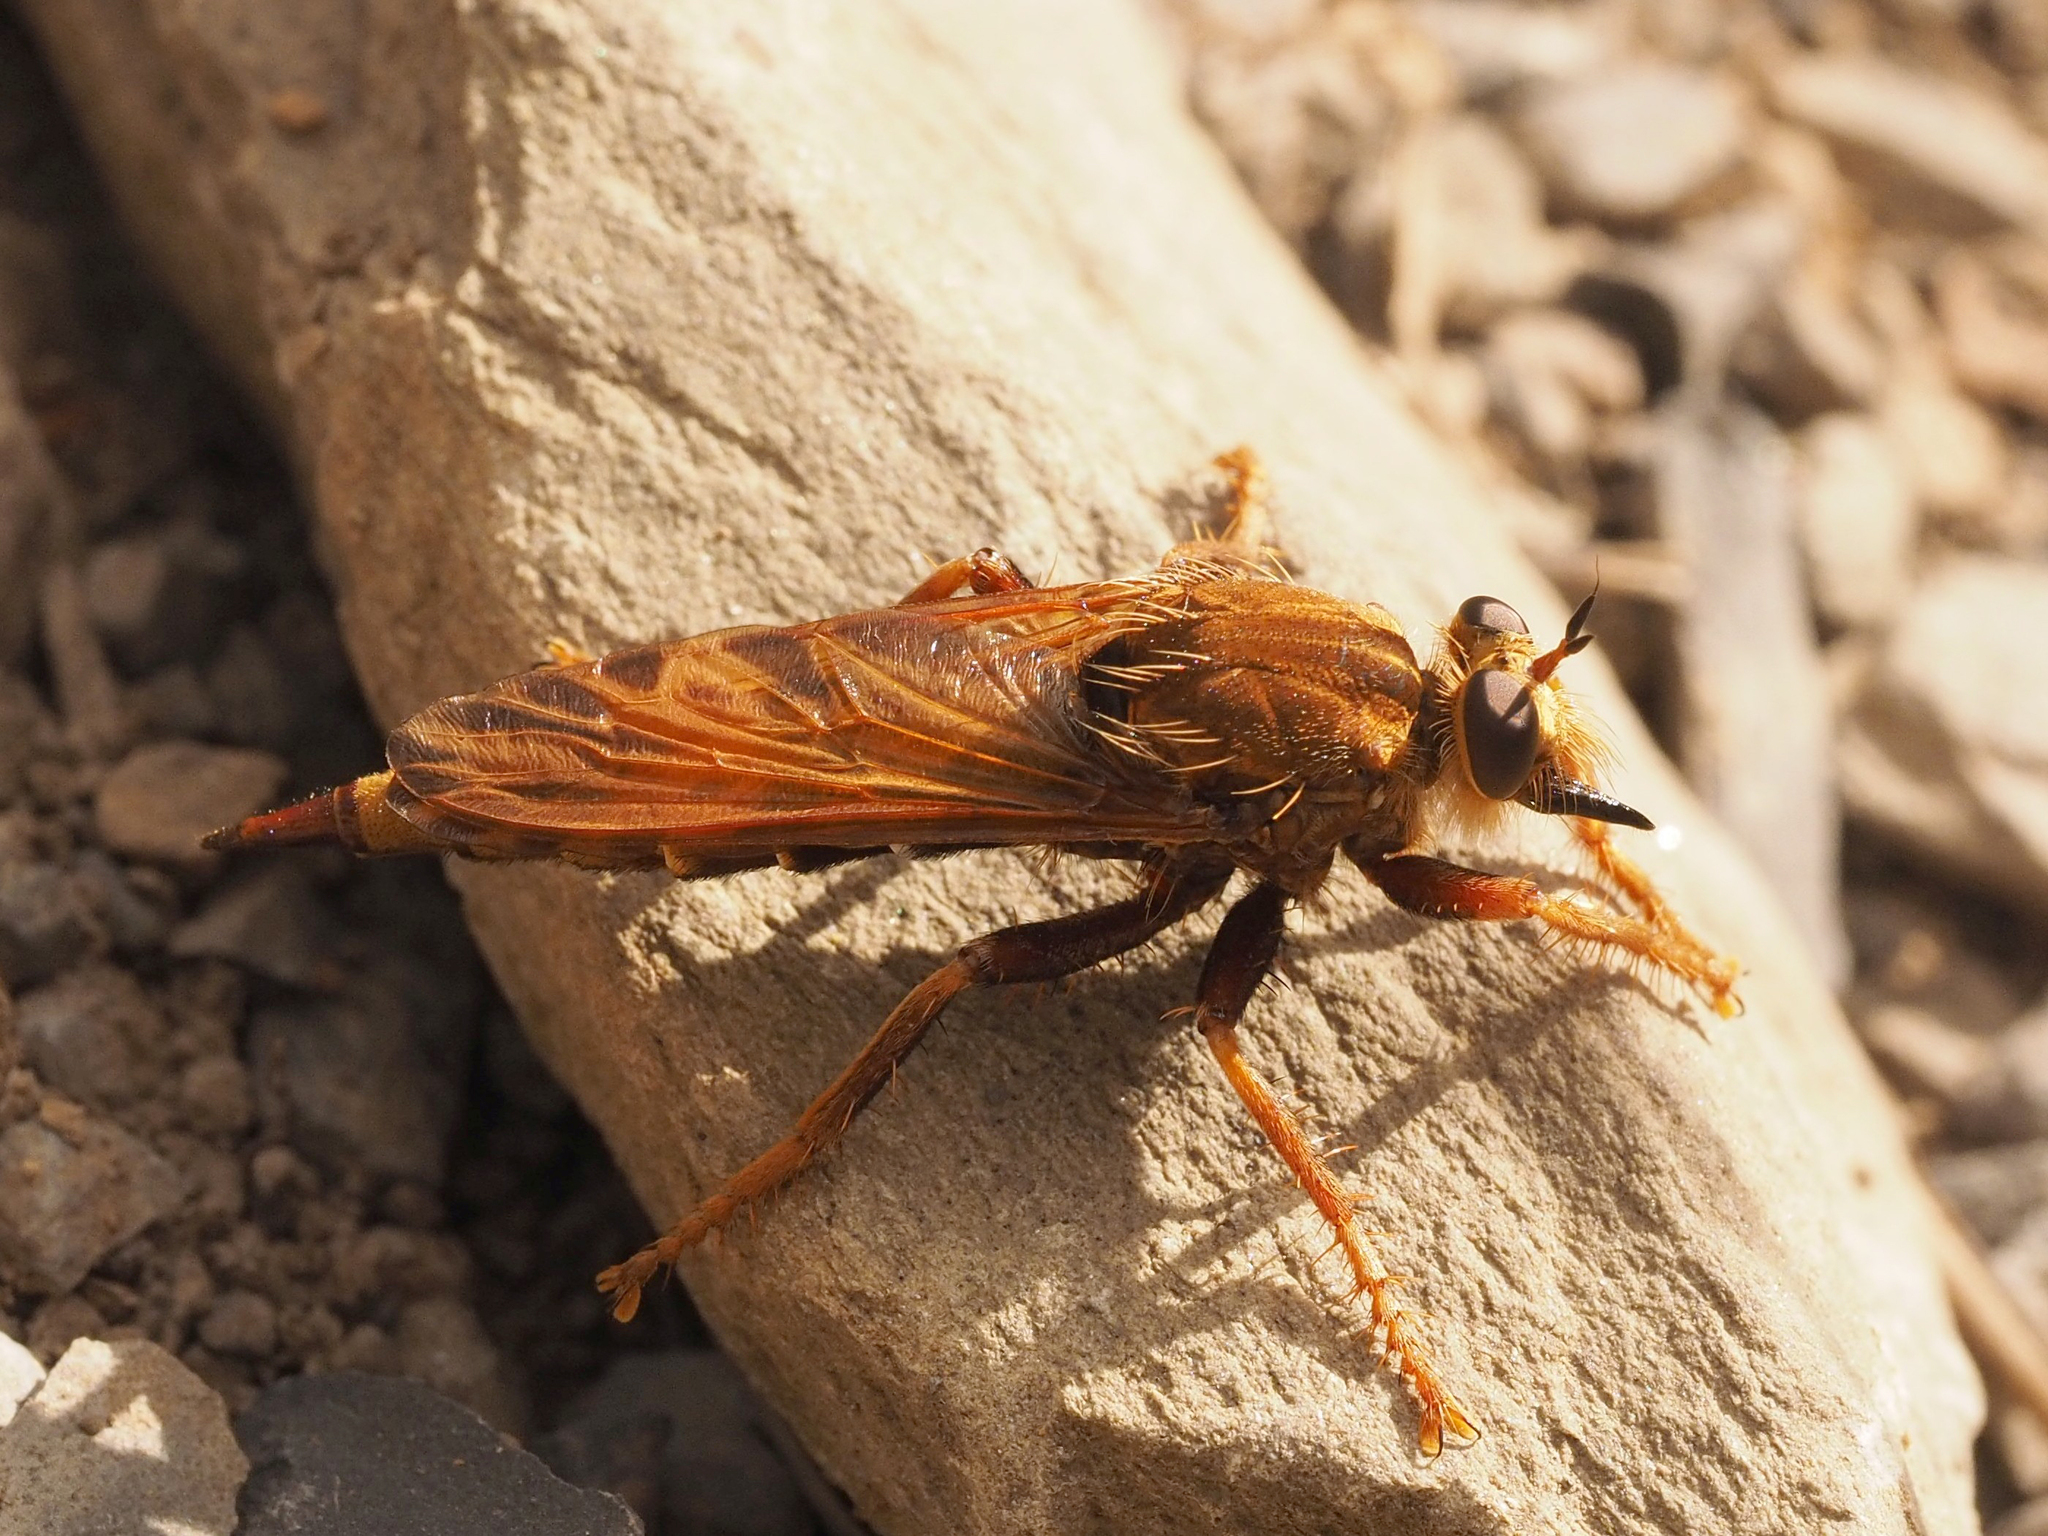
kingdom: Animalia
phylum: Arthropoda
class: Insecta
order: Diptera
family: Asilidae
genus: Asilus
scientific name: Asilus crabroniformis
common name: Hornet robberfly
